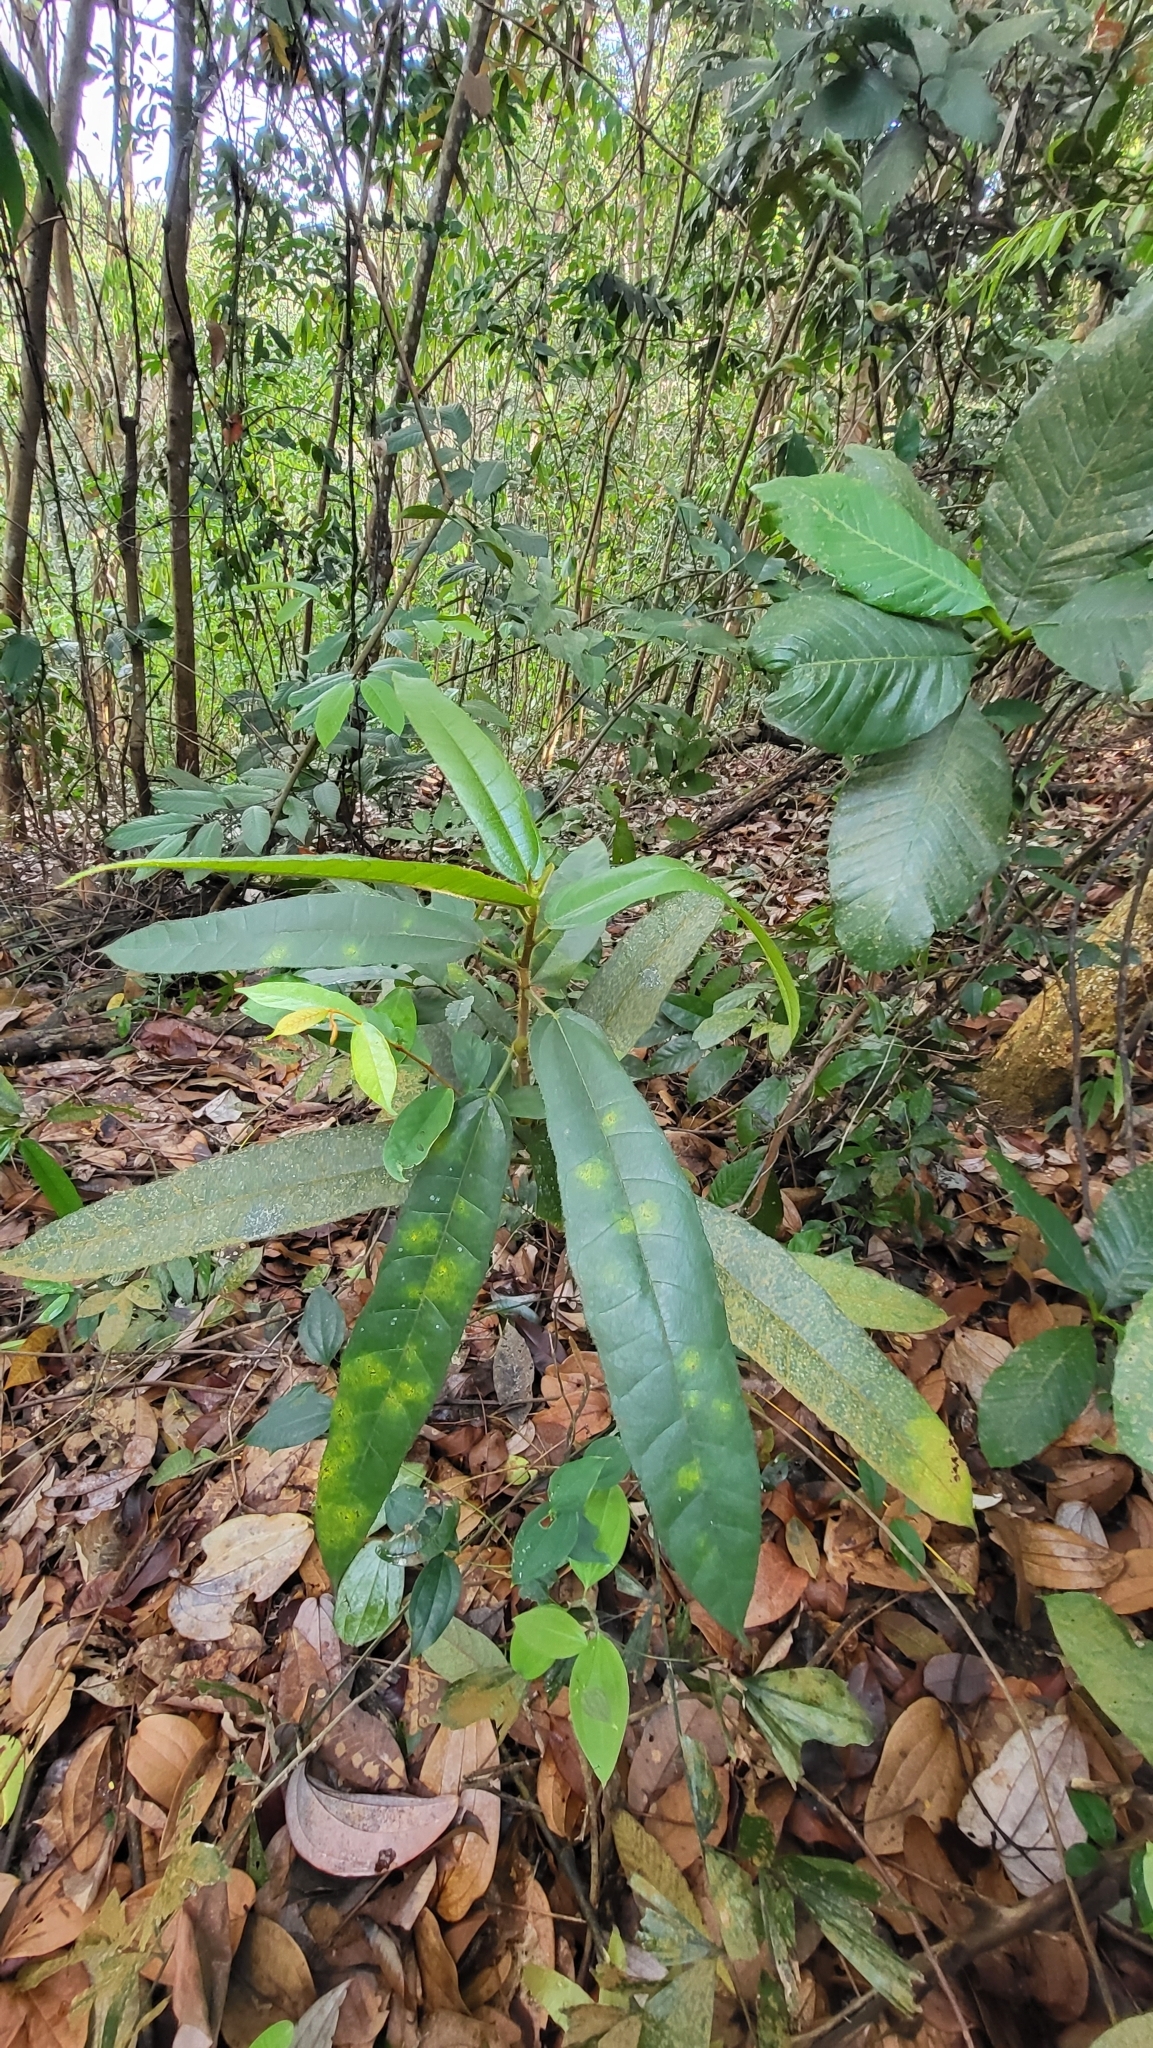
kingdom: Plantae
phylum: Tracheophyta
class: Magnoliopsida
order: Rosales
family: Moraceae
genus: Ficus
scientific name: Ficus aurata
